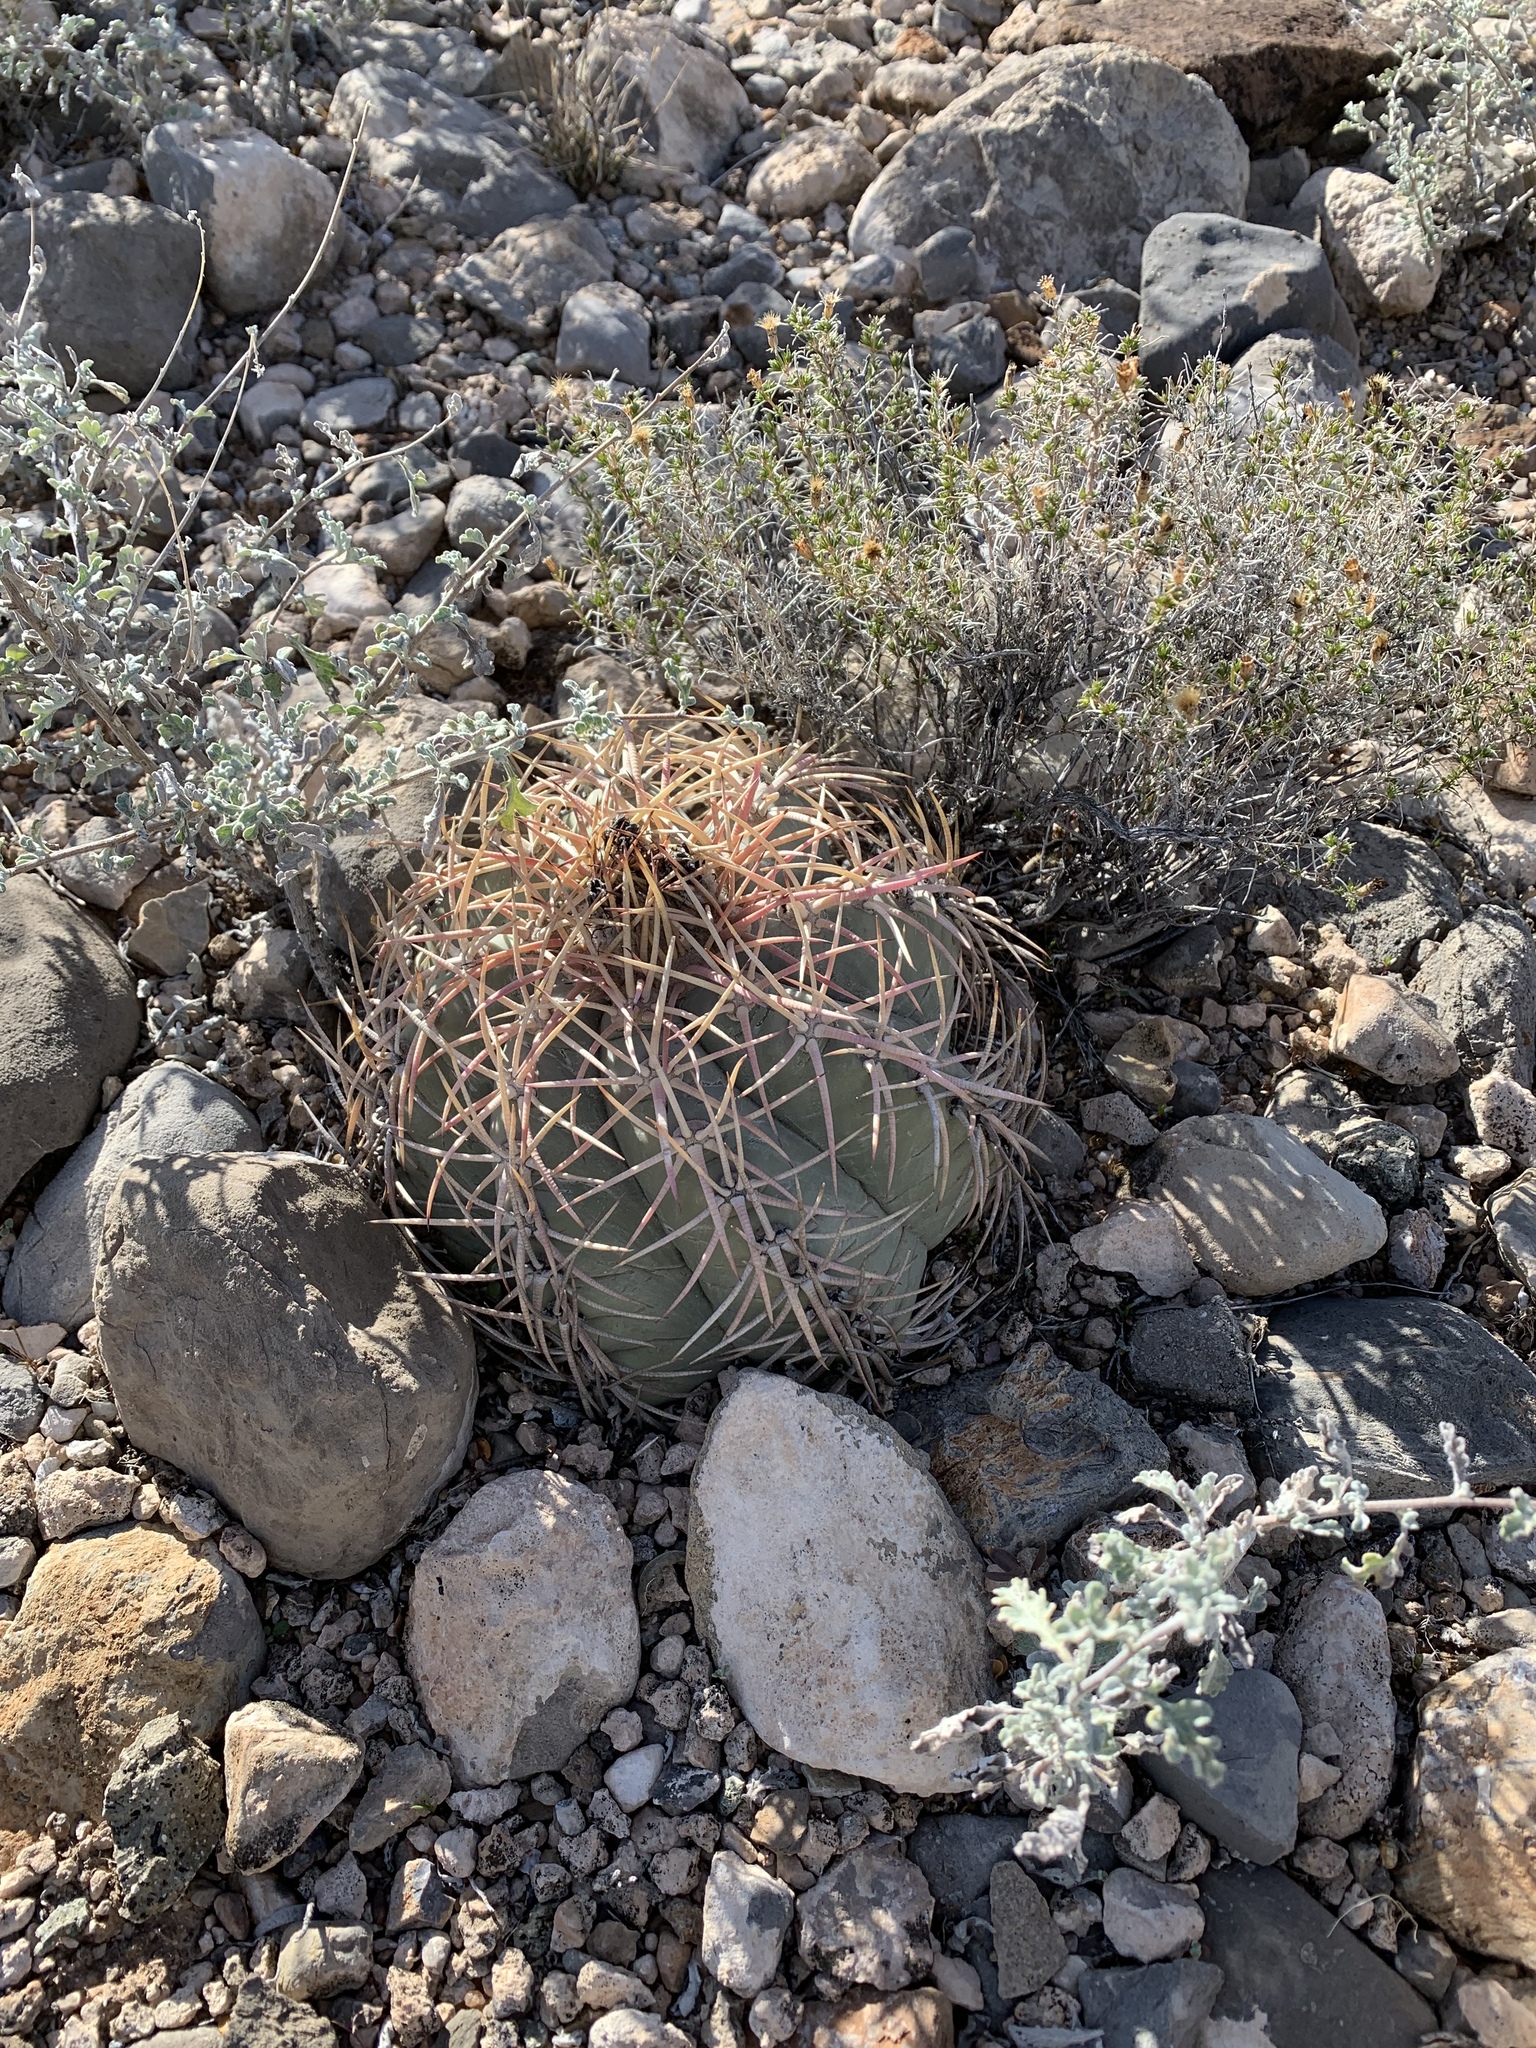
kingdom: Plantae
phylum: Tracheophyta
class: Magnoliopsida
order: Caryophyllales
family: Cactaceae
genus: Echinocactus
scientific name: Echinocactus horizonthalonius
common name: Devilshead
